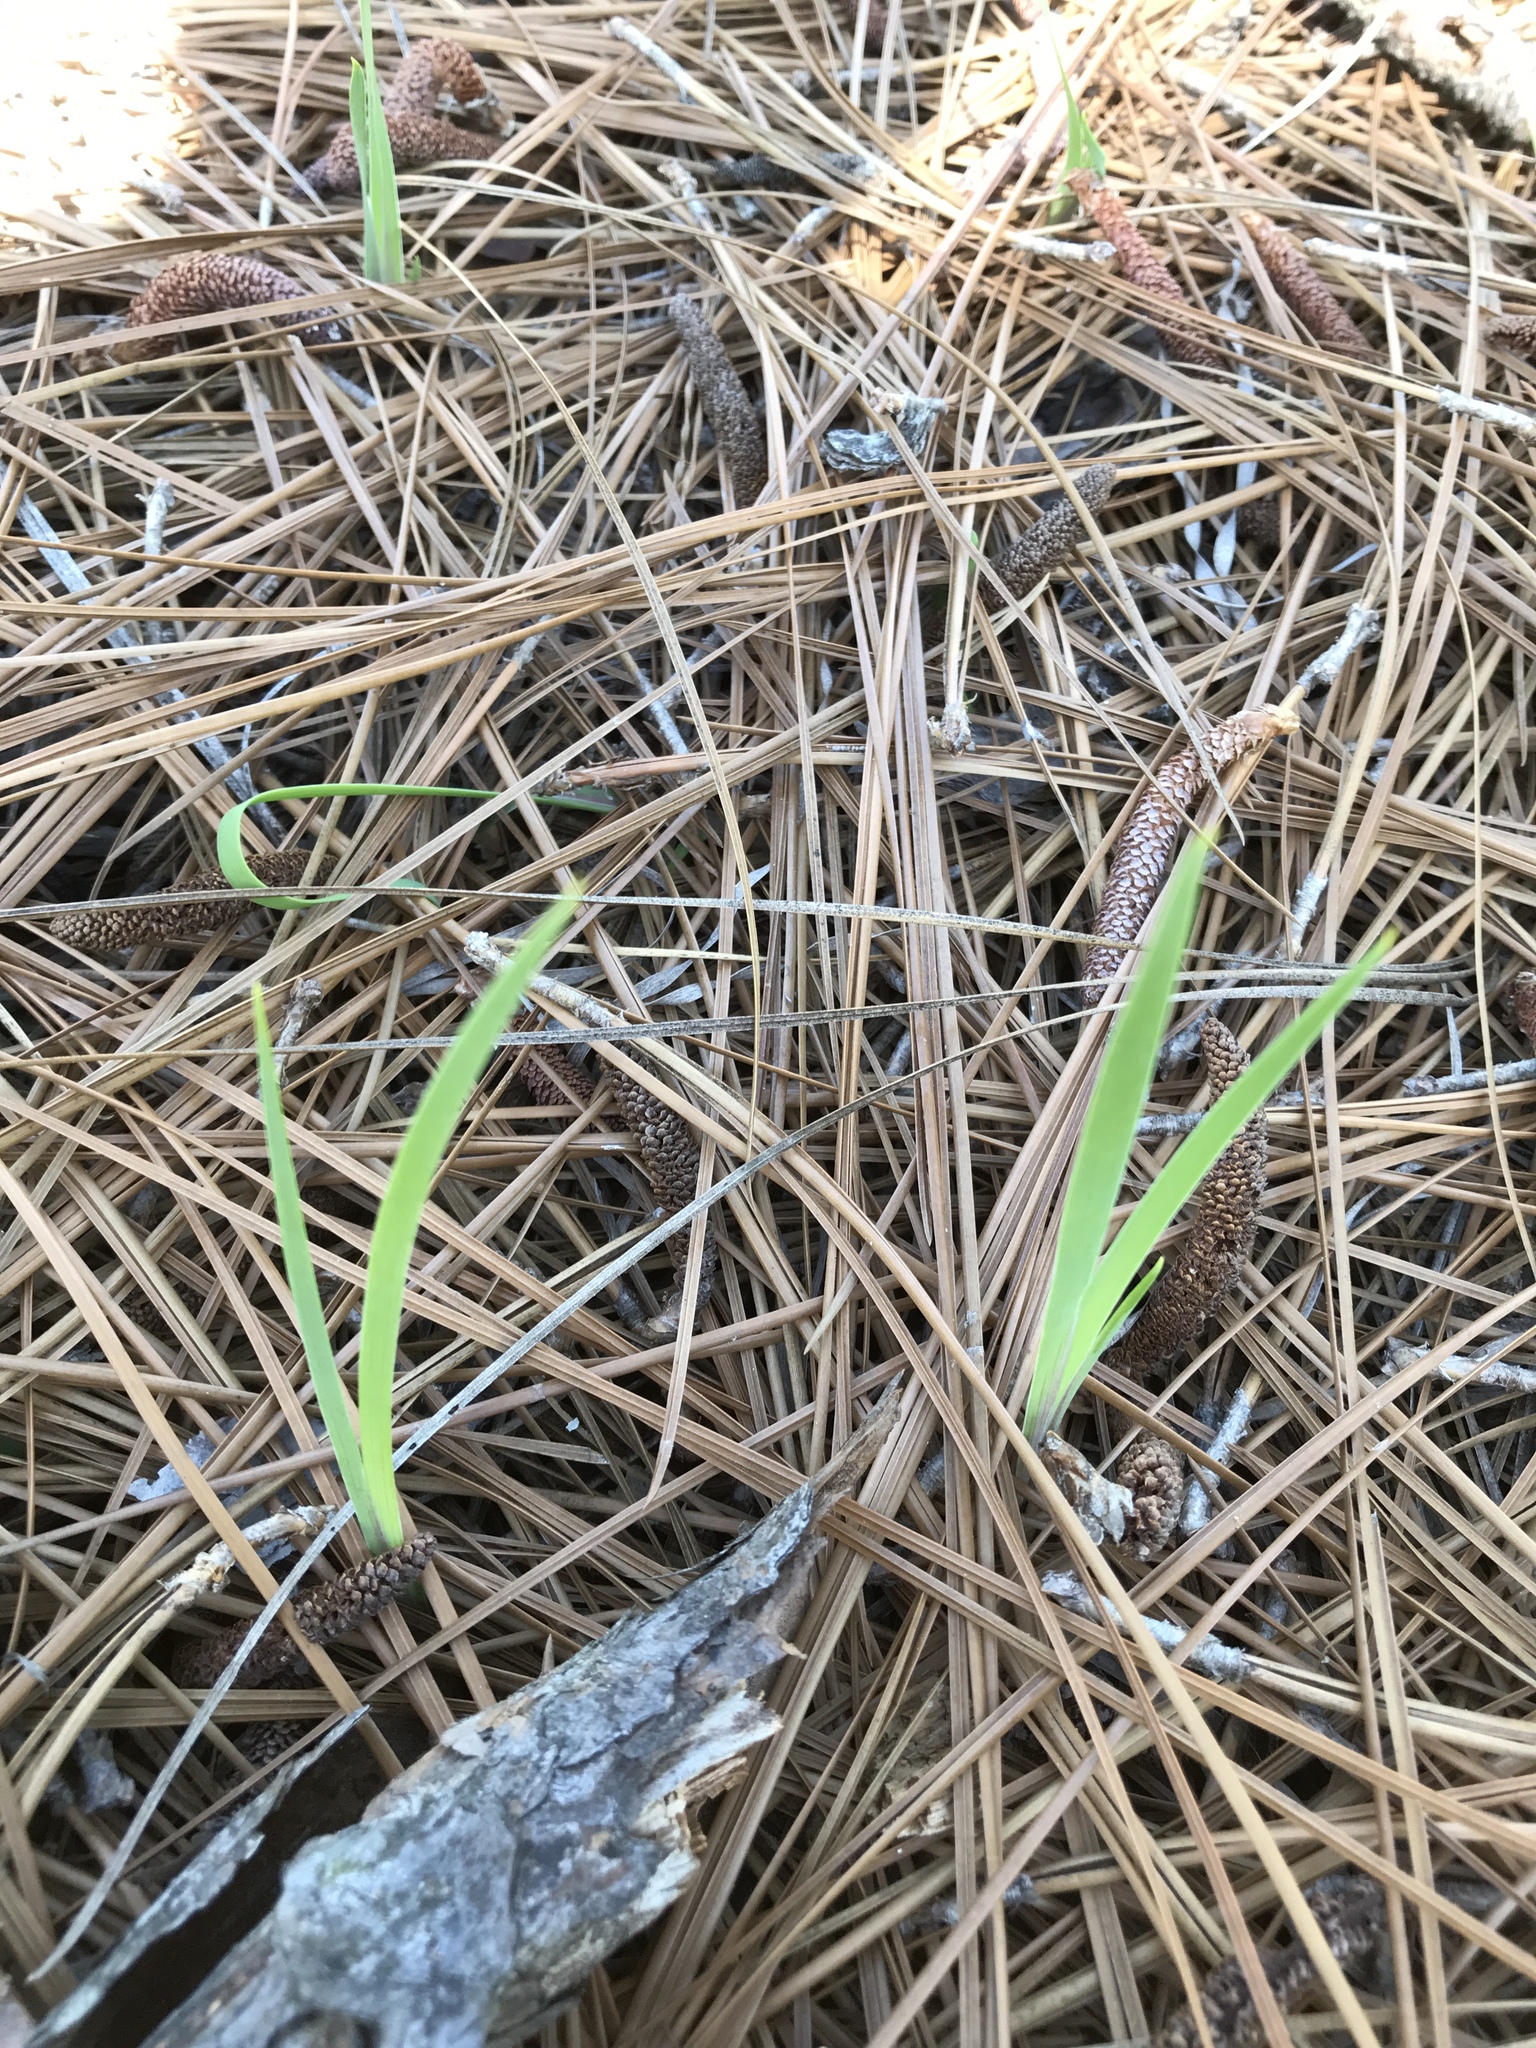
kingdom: Plantae
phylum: Tracheophyta
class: Liliopsida
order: Asparagales
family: Iridaceae
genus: Iris
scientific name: Iris verna
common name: Dwarf iris
